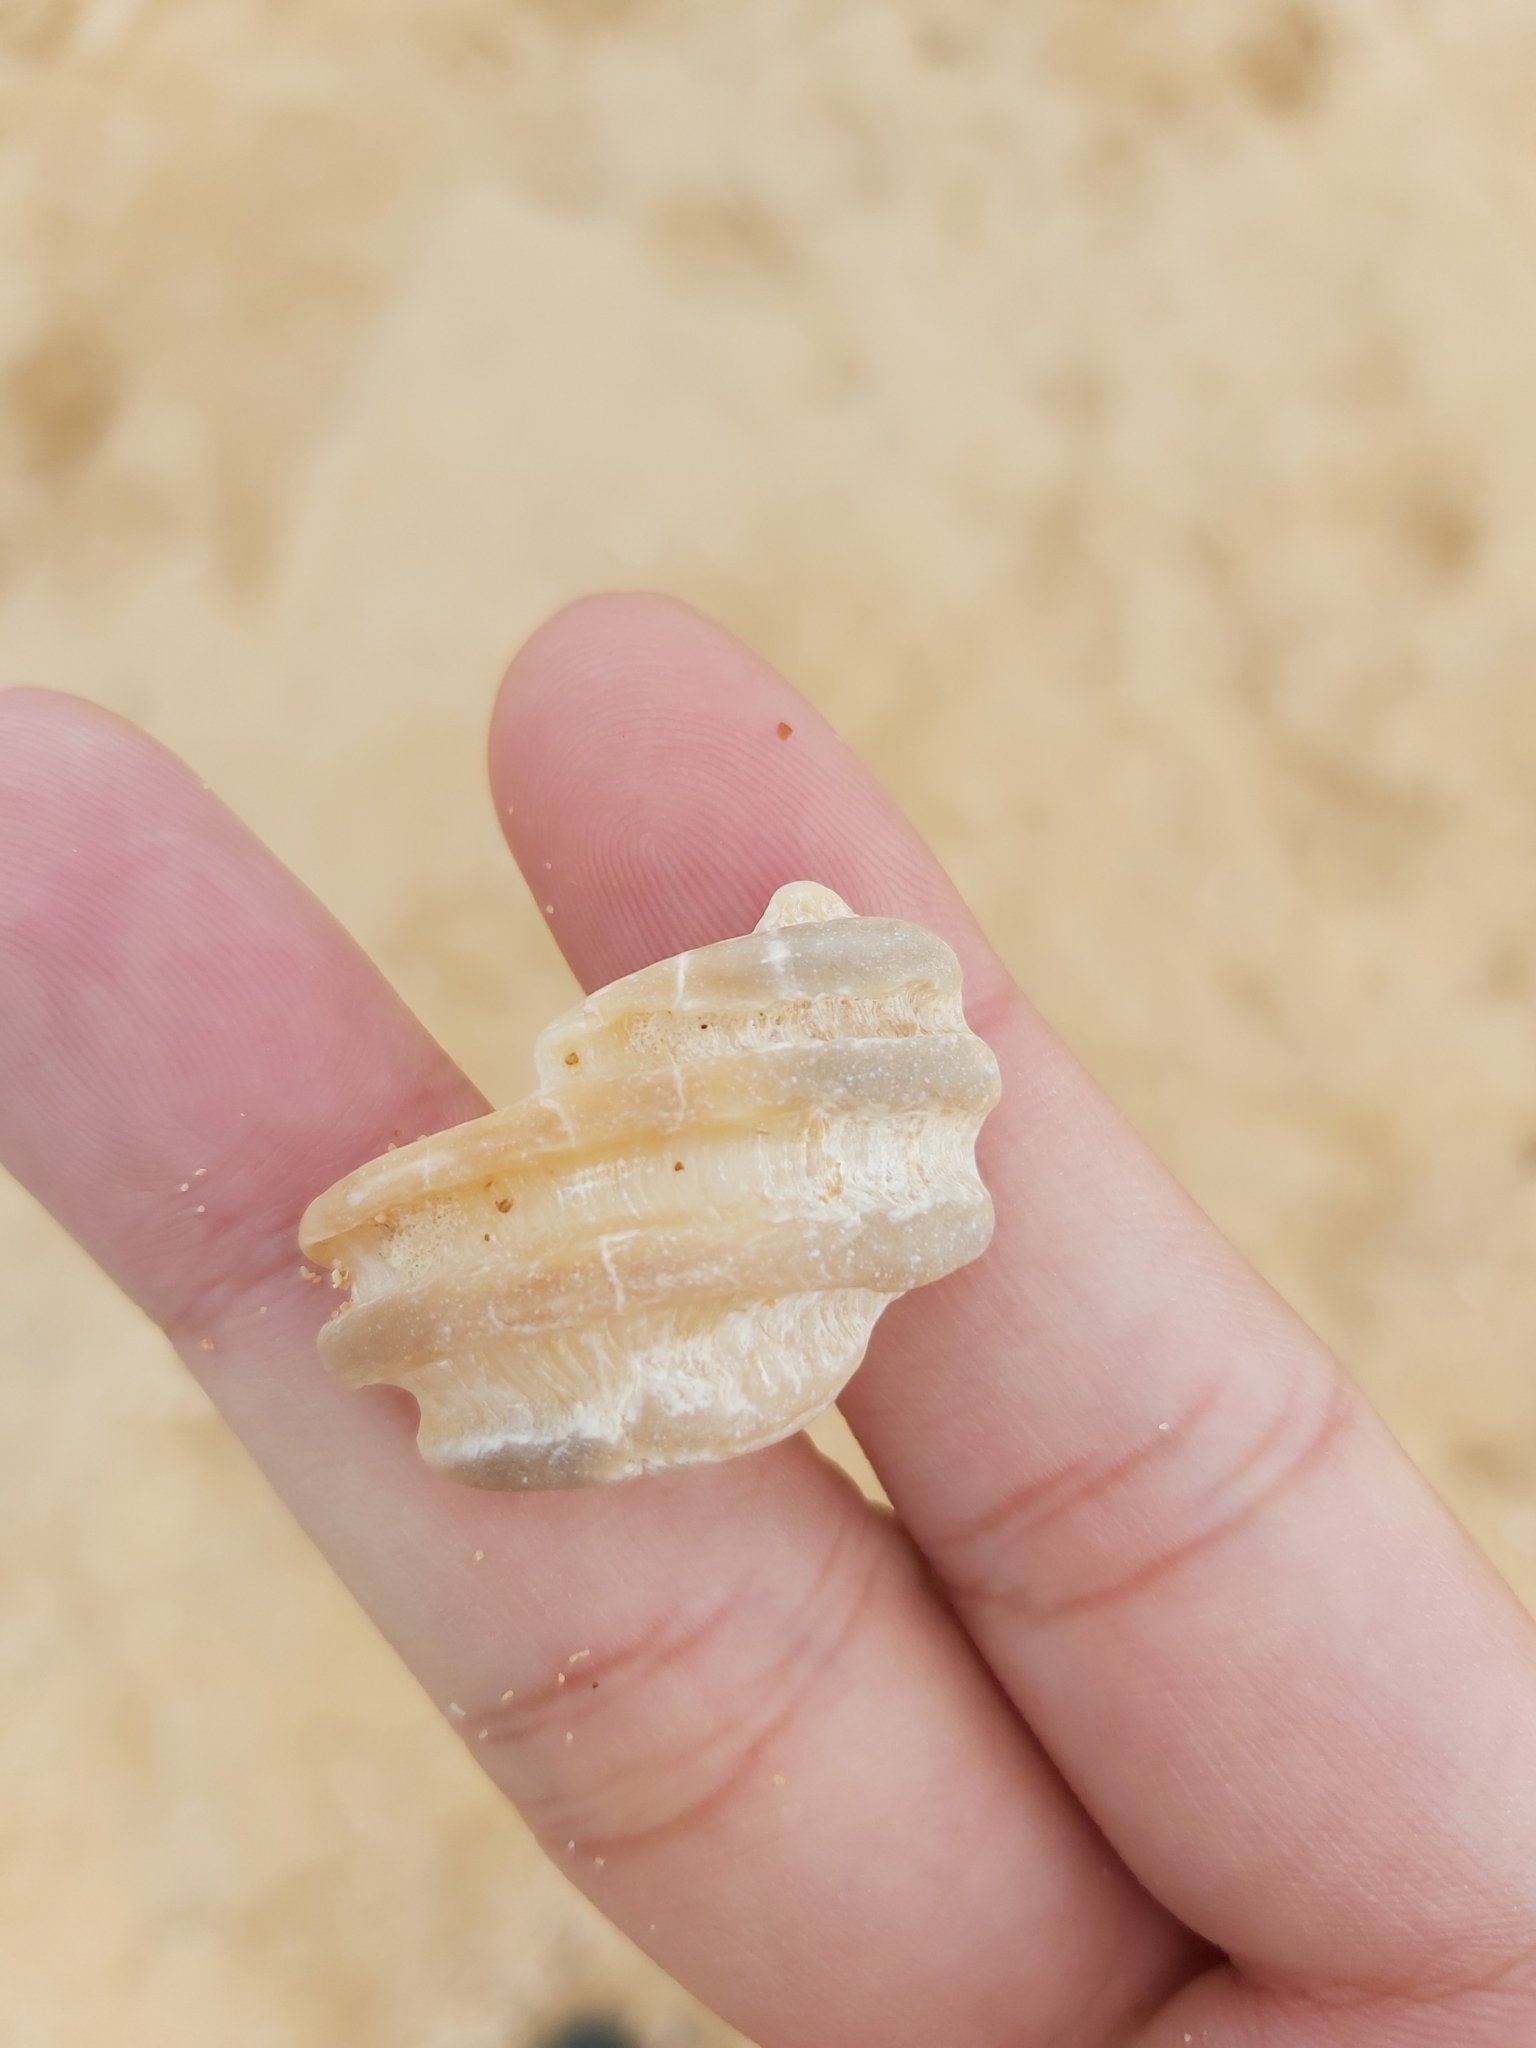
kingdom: Animalia
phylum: Mollusca
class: Gastropoda
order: Neogastropoda
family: Muricidae
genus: Dicathais
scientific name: Dicathais orbita
